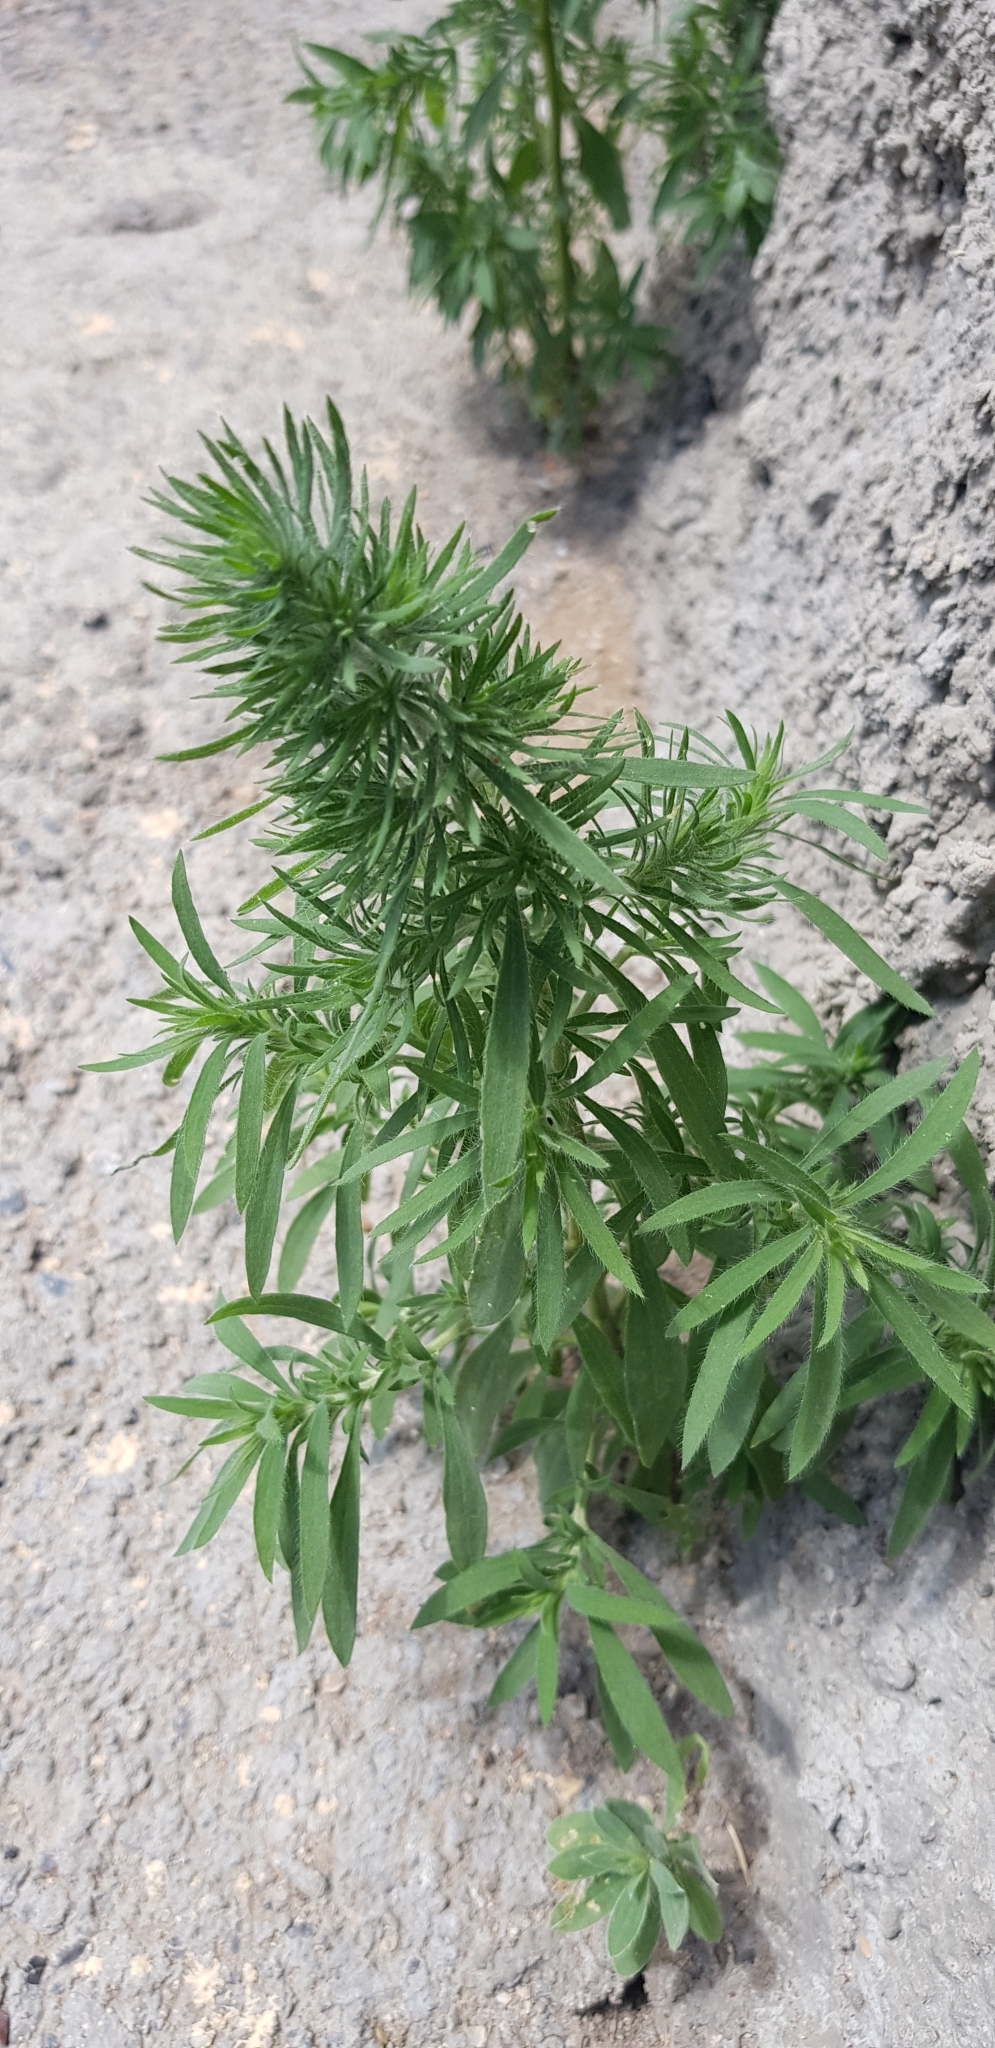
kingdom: Plantae
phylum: Tracheophyta
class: Magnoliopsida
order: Caryophyllales
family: Amaranthaceae
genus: Bassia
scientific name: Bassia scoparia
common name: Belvedere
